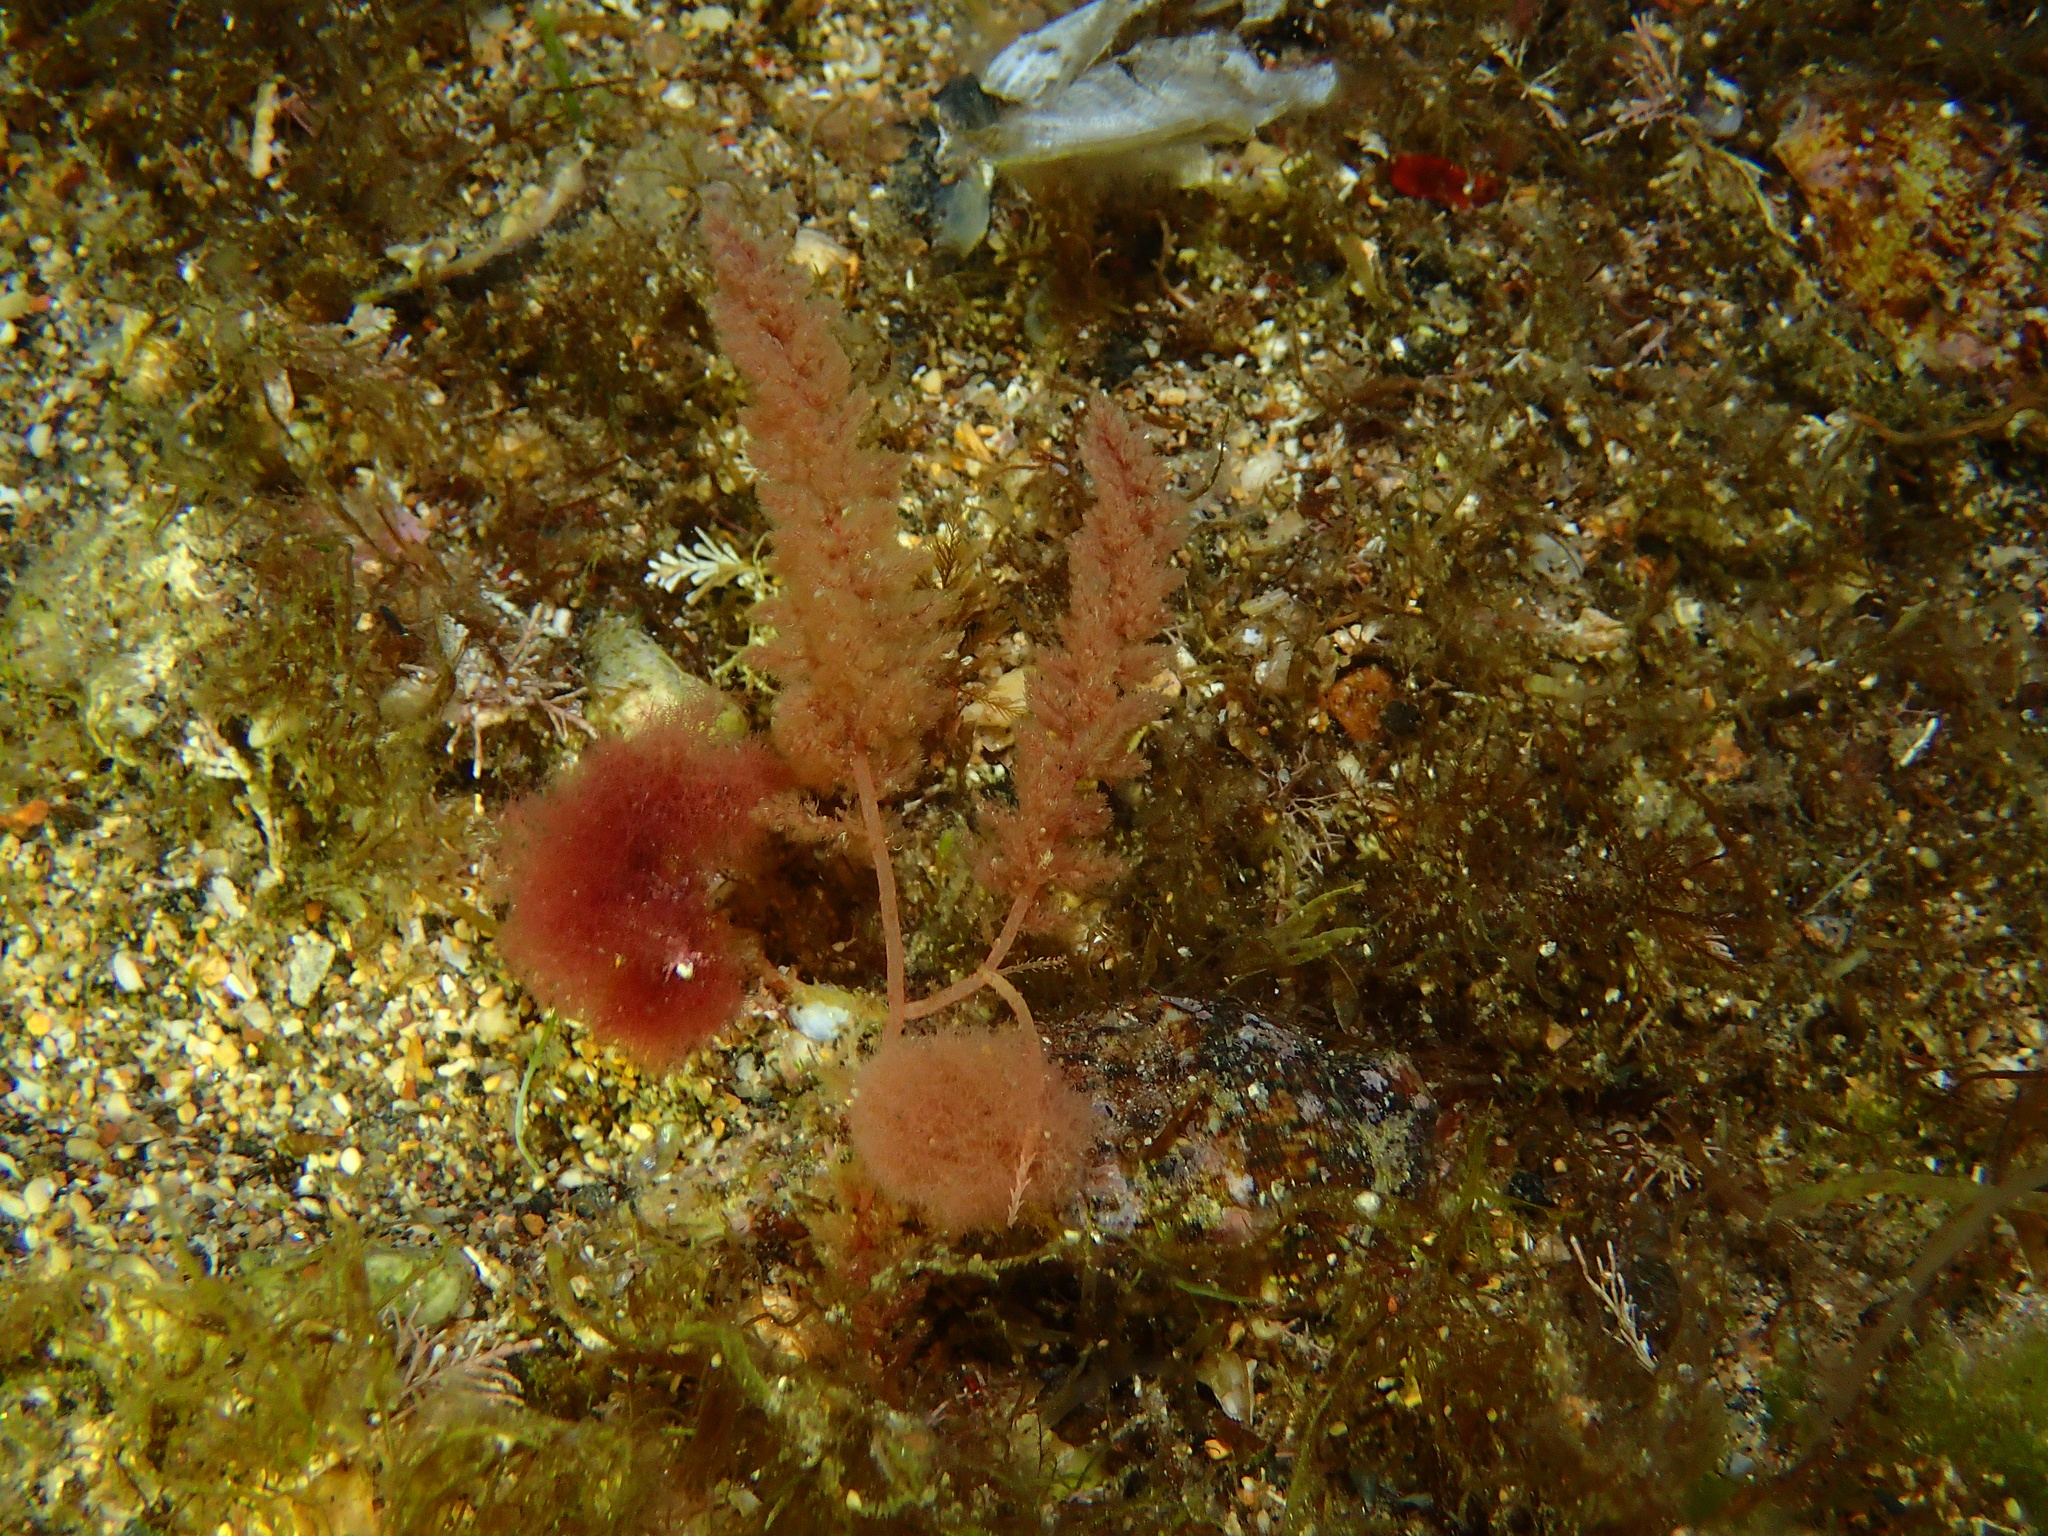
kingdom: Plantae
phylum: Rhodophyta
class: Florideophyceae
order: Bonnemaisoniales
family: Bonnemaisoniaceae
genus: Asparagopsis
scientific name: Asparagopsis armata
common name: Harpoon weed
